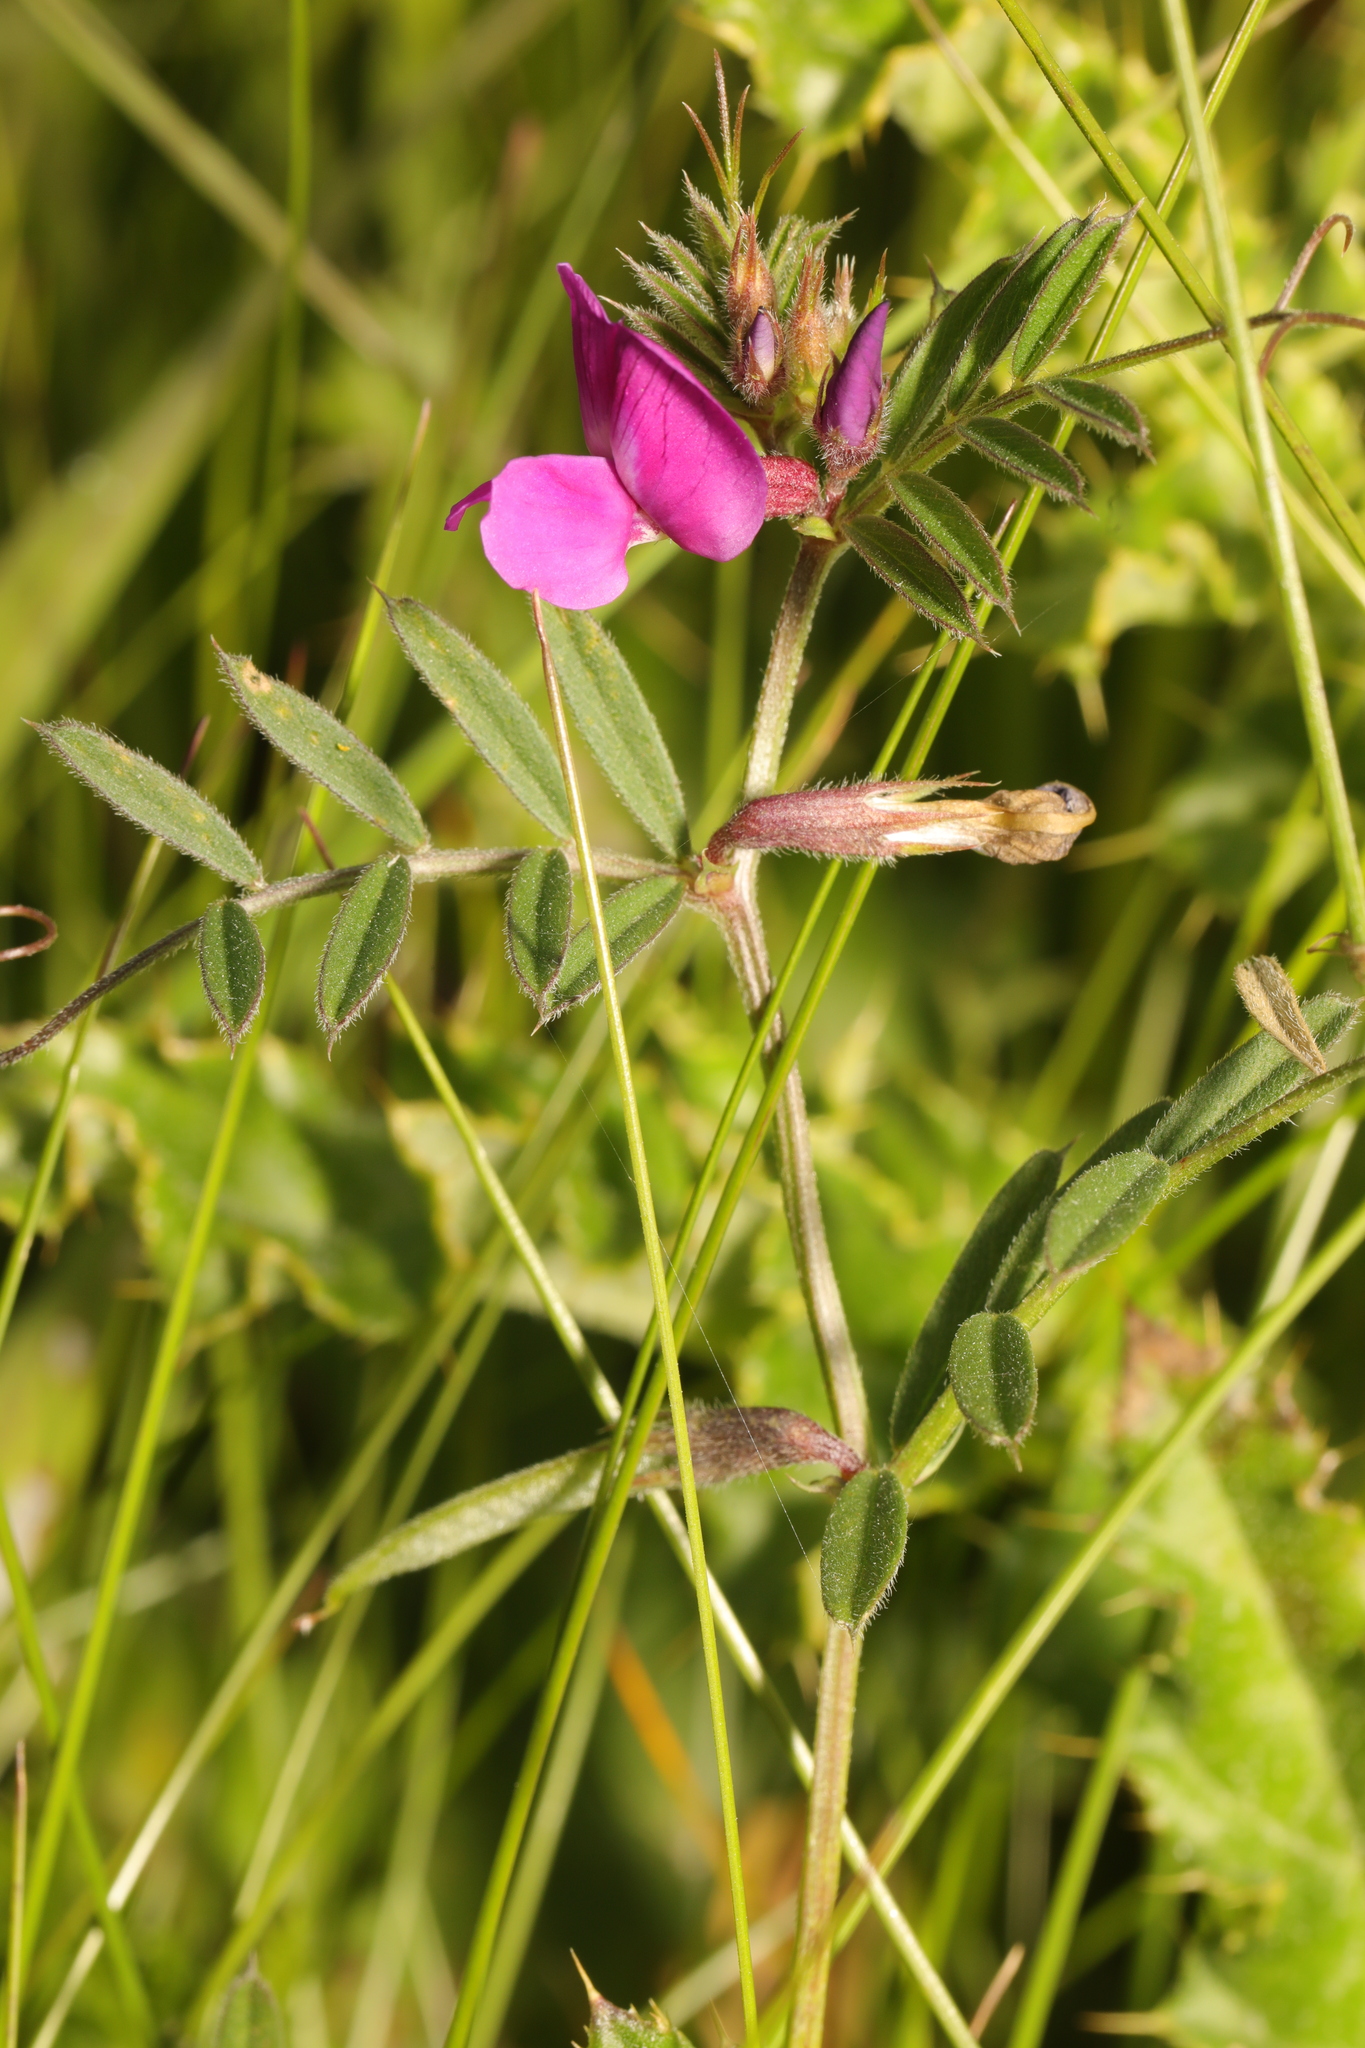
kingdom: Plantae
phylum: Tracheophyta
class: Magnoliopsida
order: Fabales
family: Fabaceae
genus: Vicia
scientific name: Vicia sativa
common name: Garden vetch
